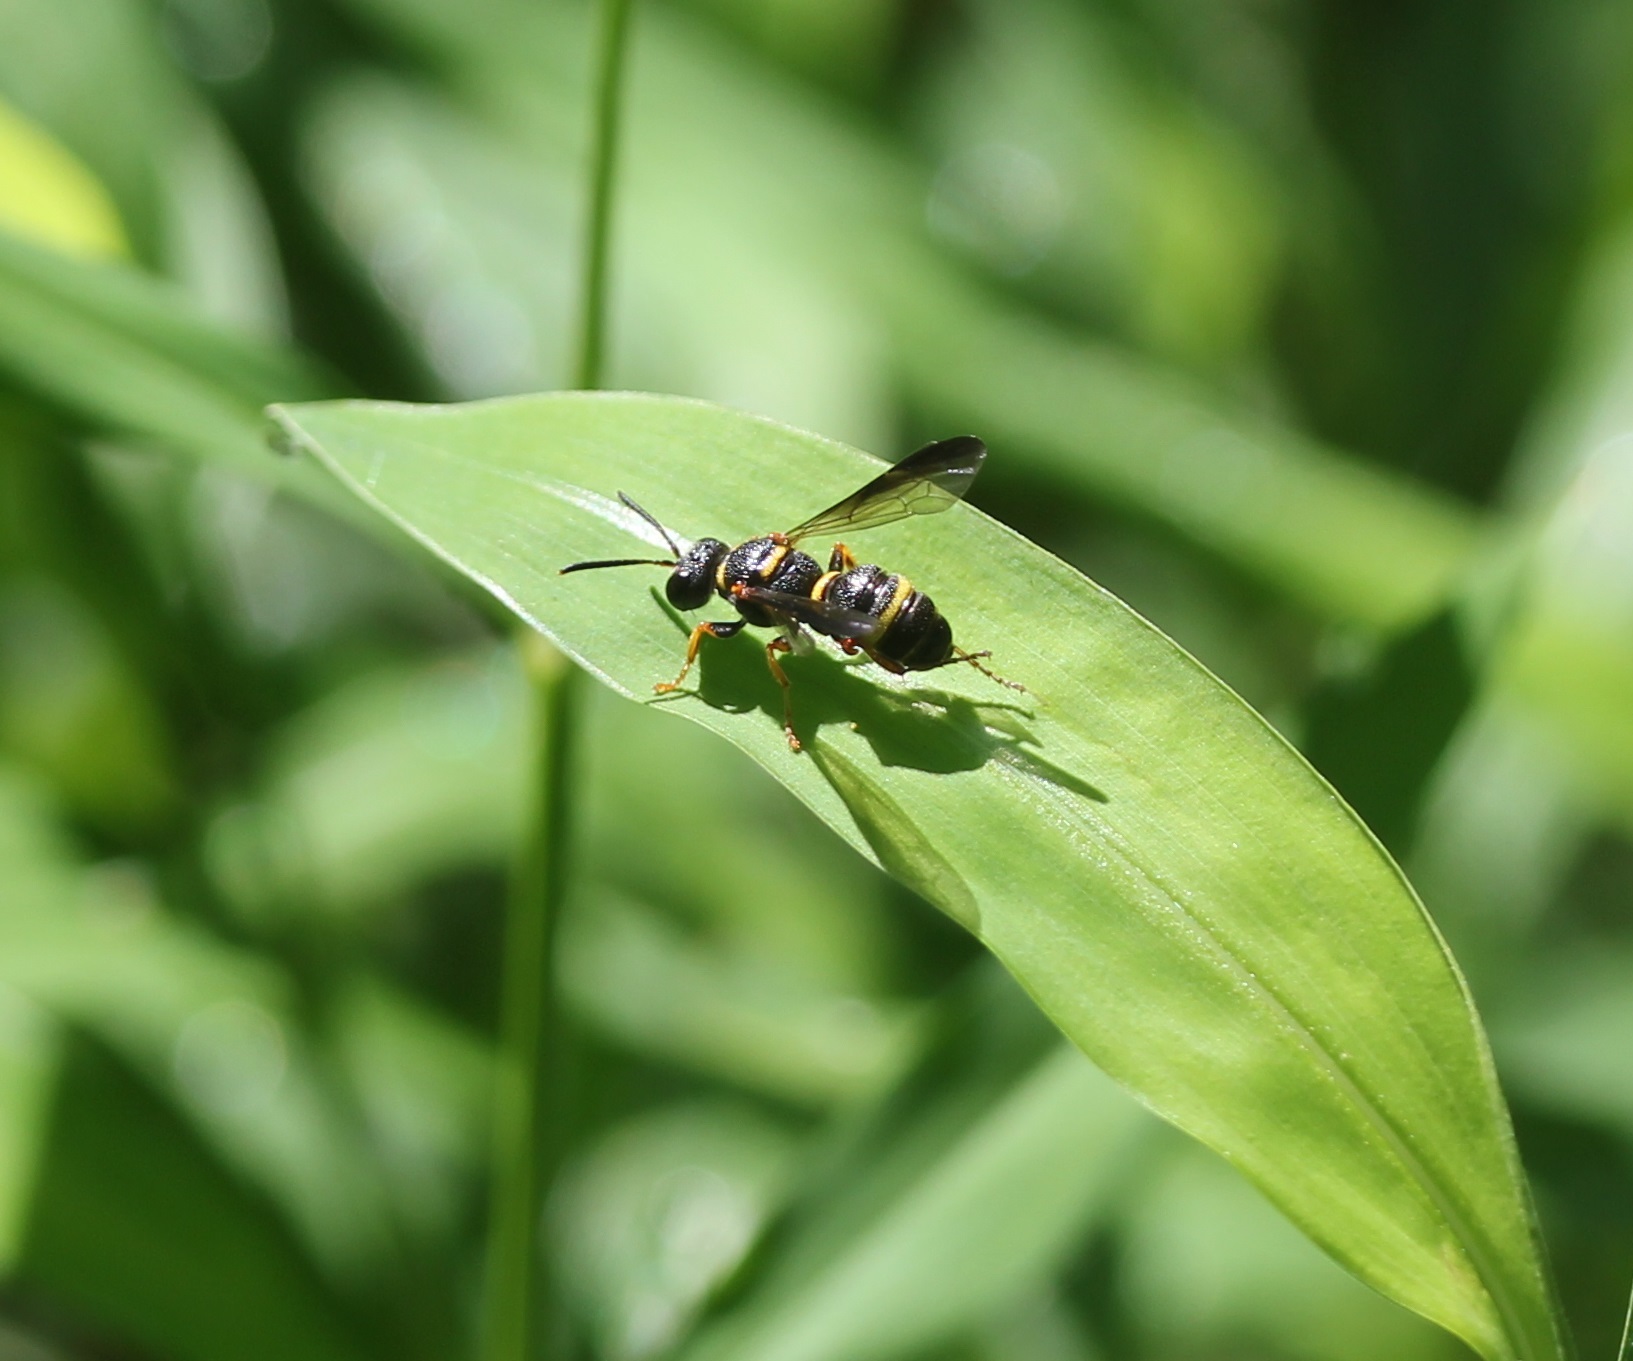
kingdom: Animalia
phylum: Arthropoda
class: Insecta
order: Hymenoptera
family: Crabronidae
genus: Cerceris
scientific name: Cerceris insolita
